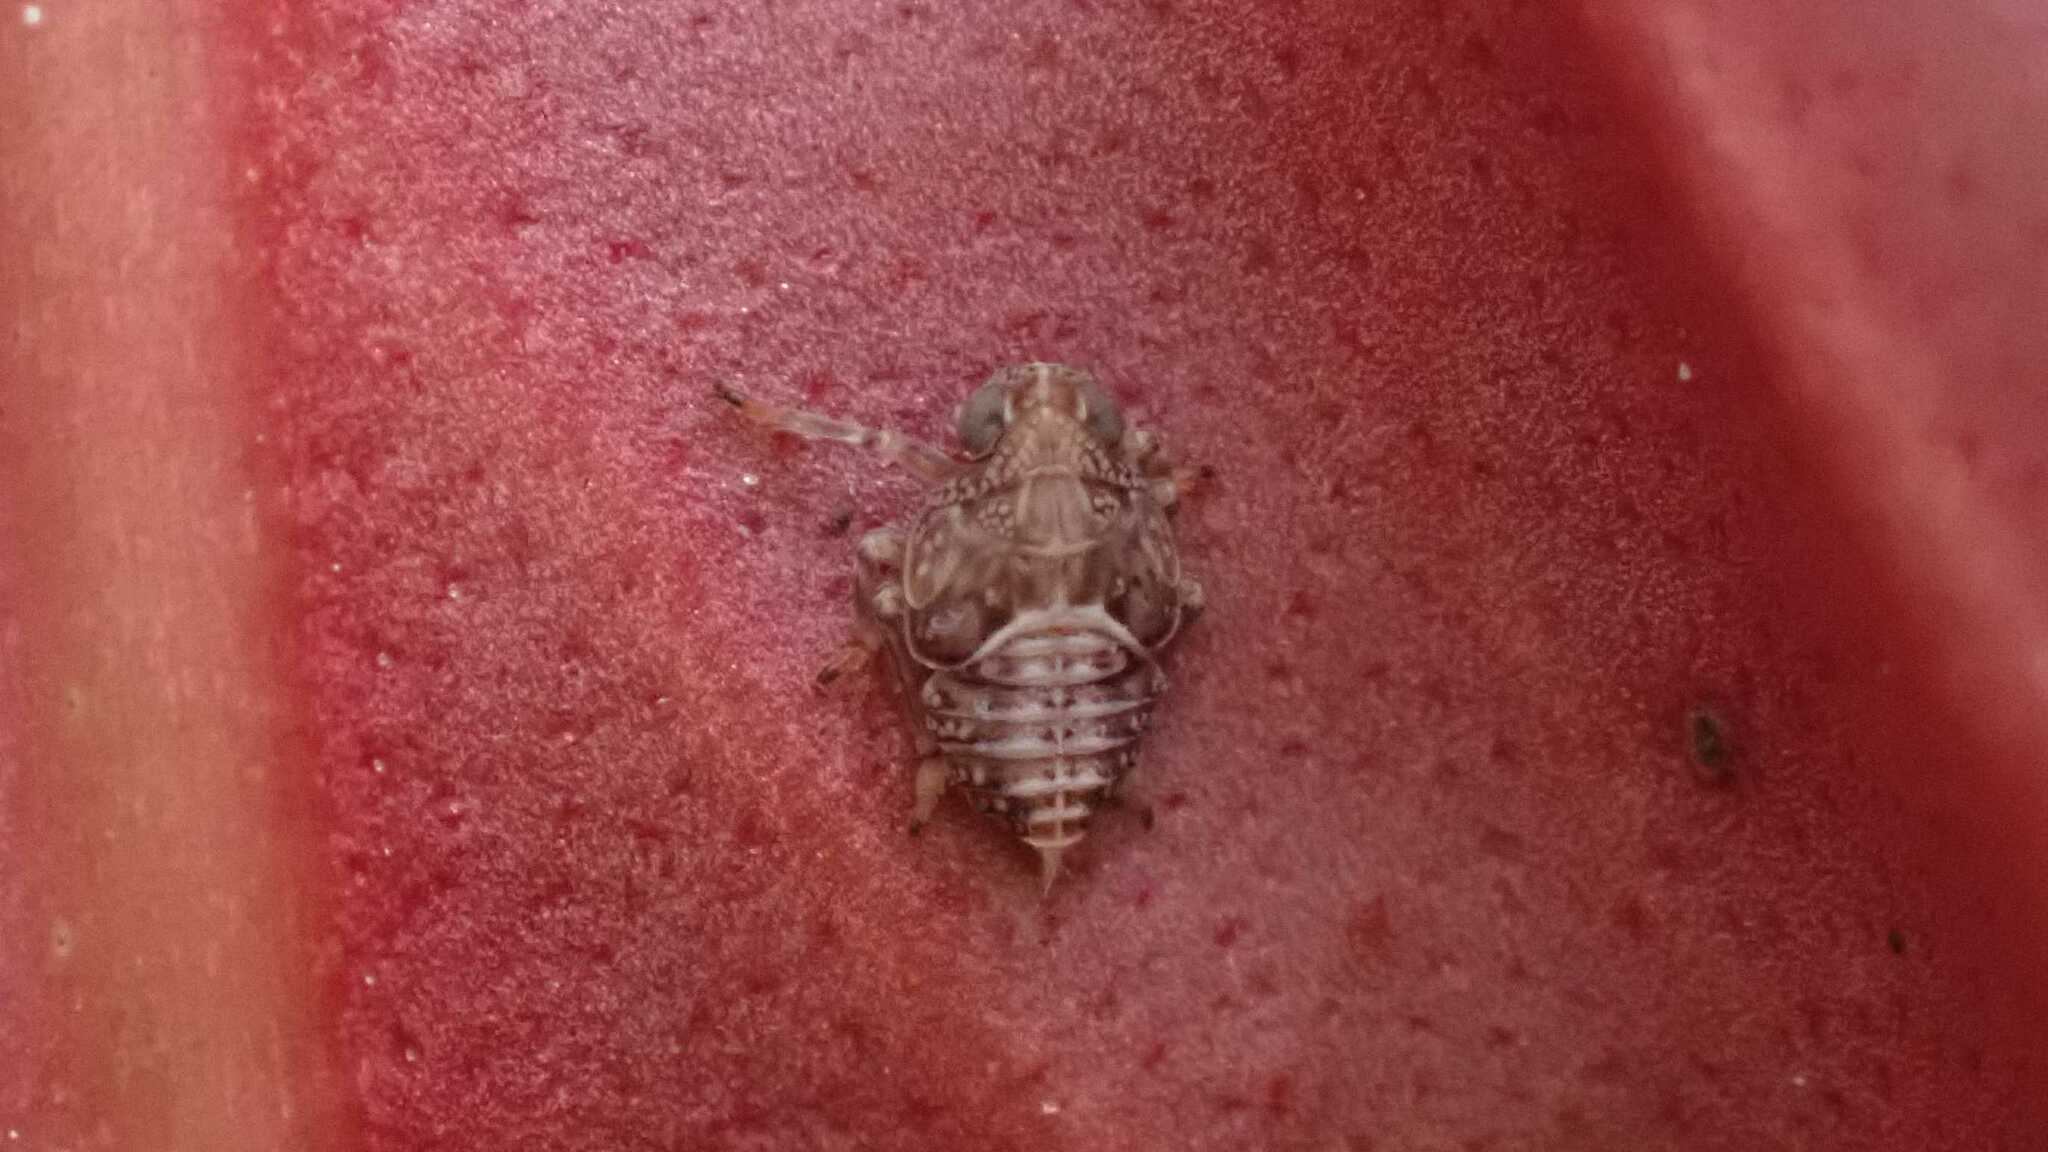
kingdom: Animalia
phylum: Arthropoda
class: Insecta
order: Hemiptera
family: Issidae
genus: Issus
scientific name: Issus coleoptratus
